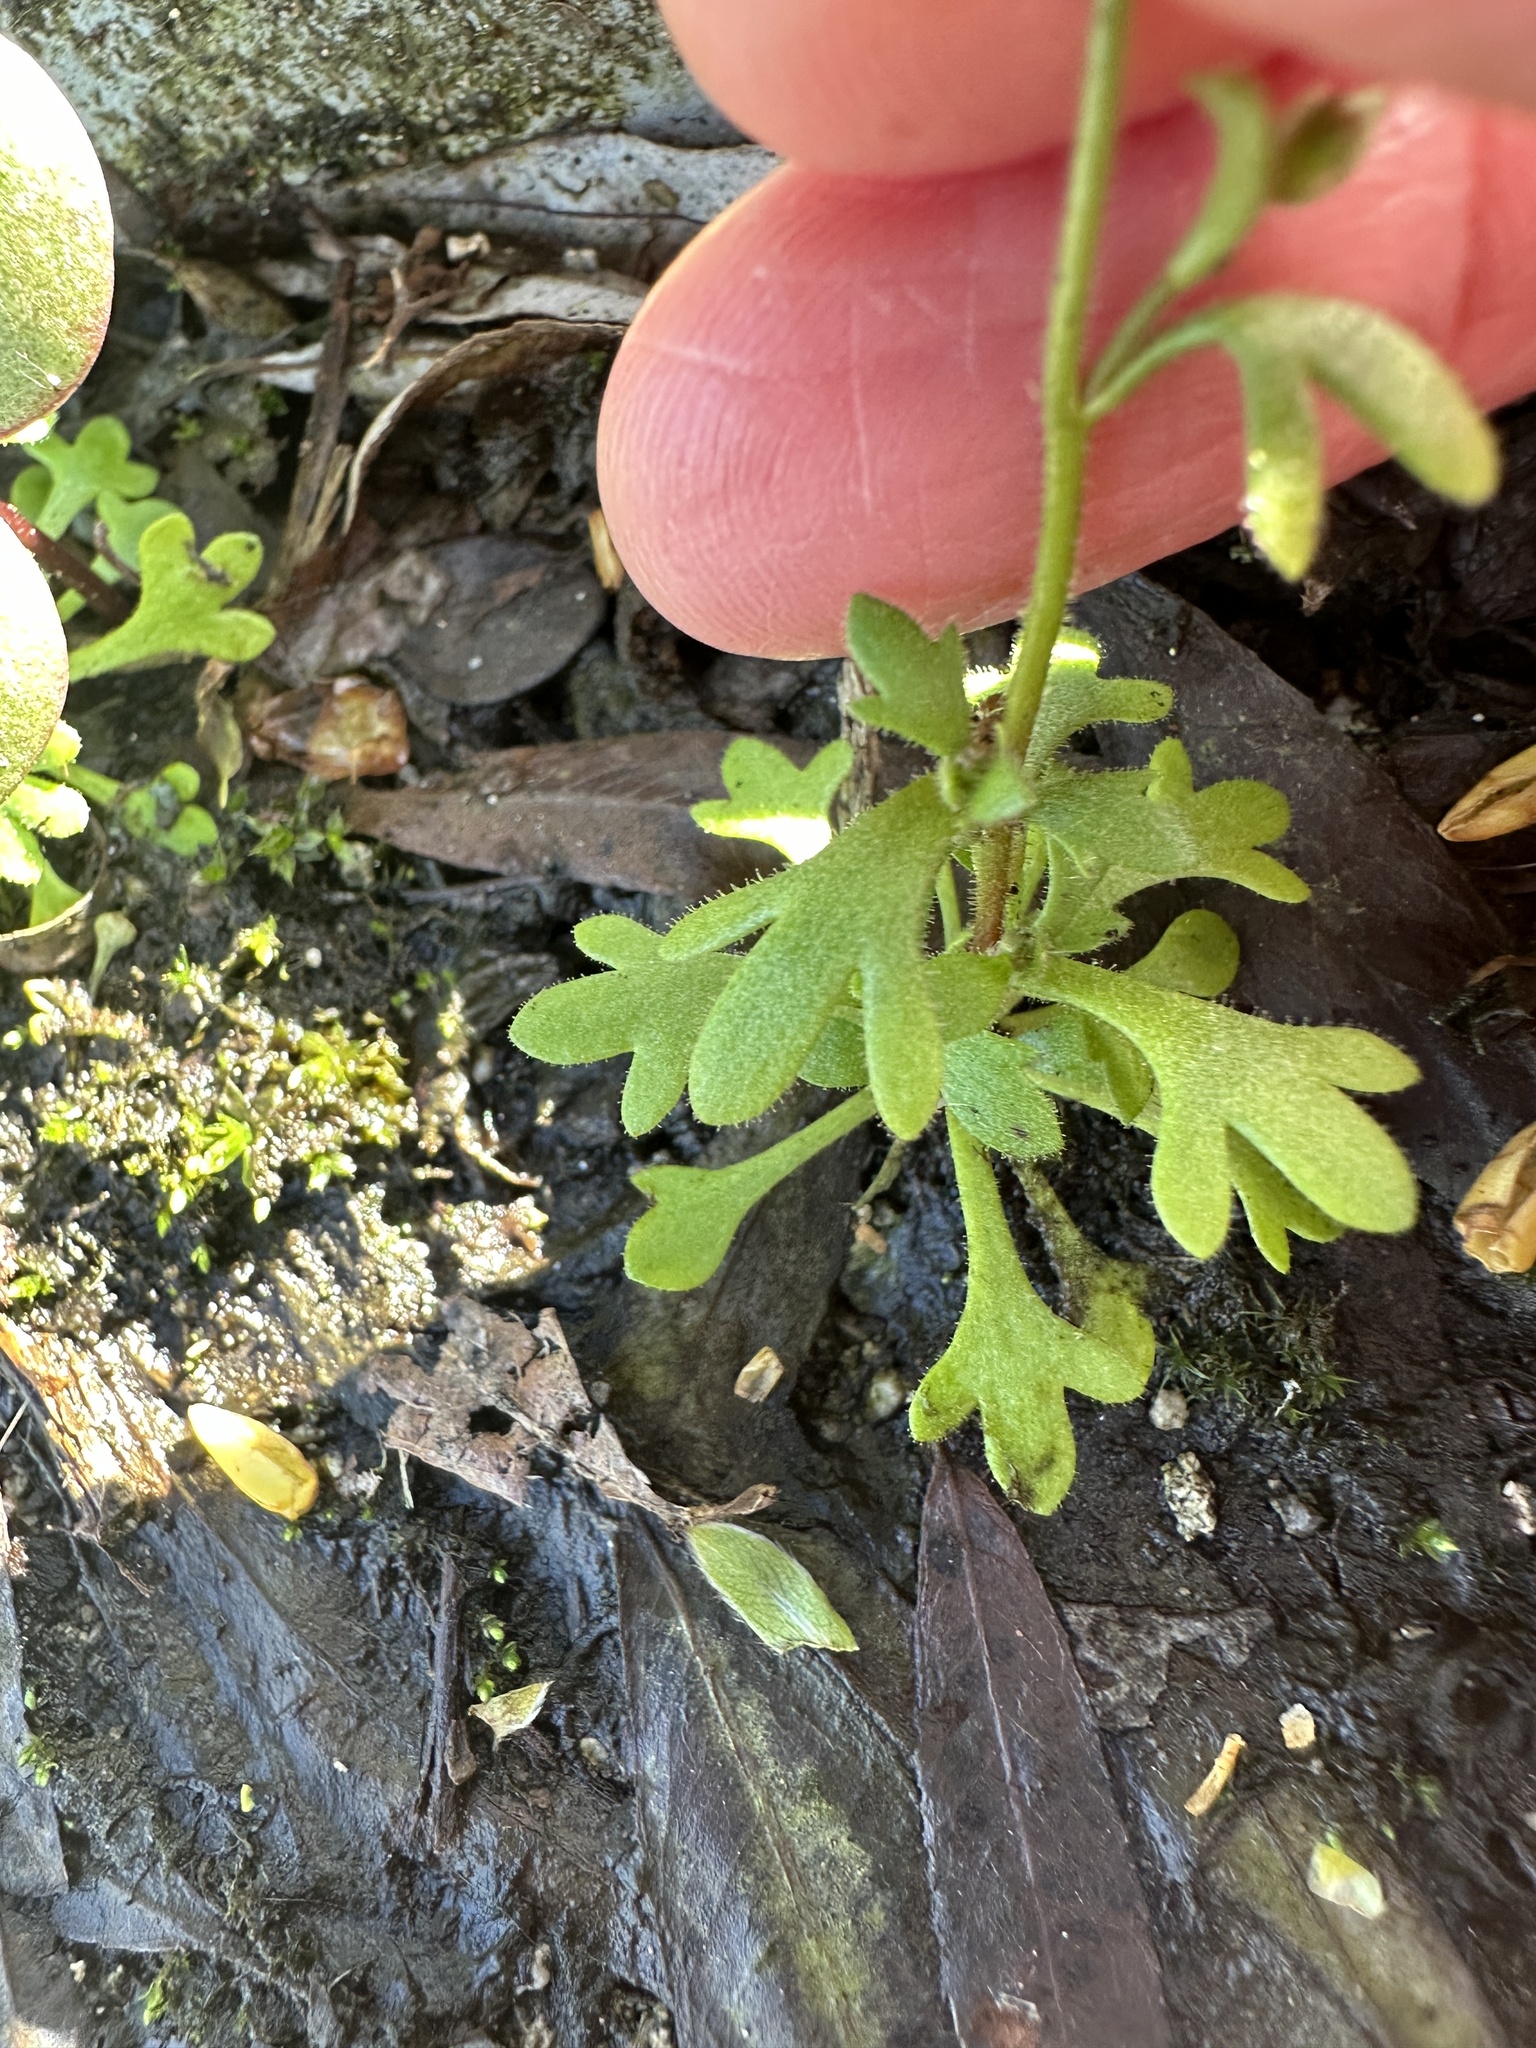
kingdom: Plantae
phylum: Tracheophyta
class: Magnoliopsida
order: Saxifragales
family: Saxifragaceae
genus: Saxifraga
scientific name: Saxifraga tridactylites
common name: Rue-leaved saxifrage
